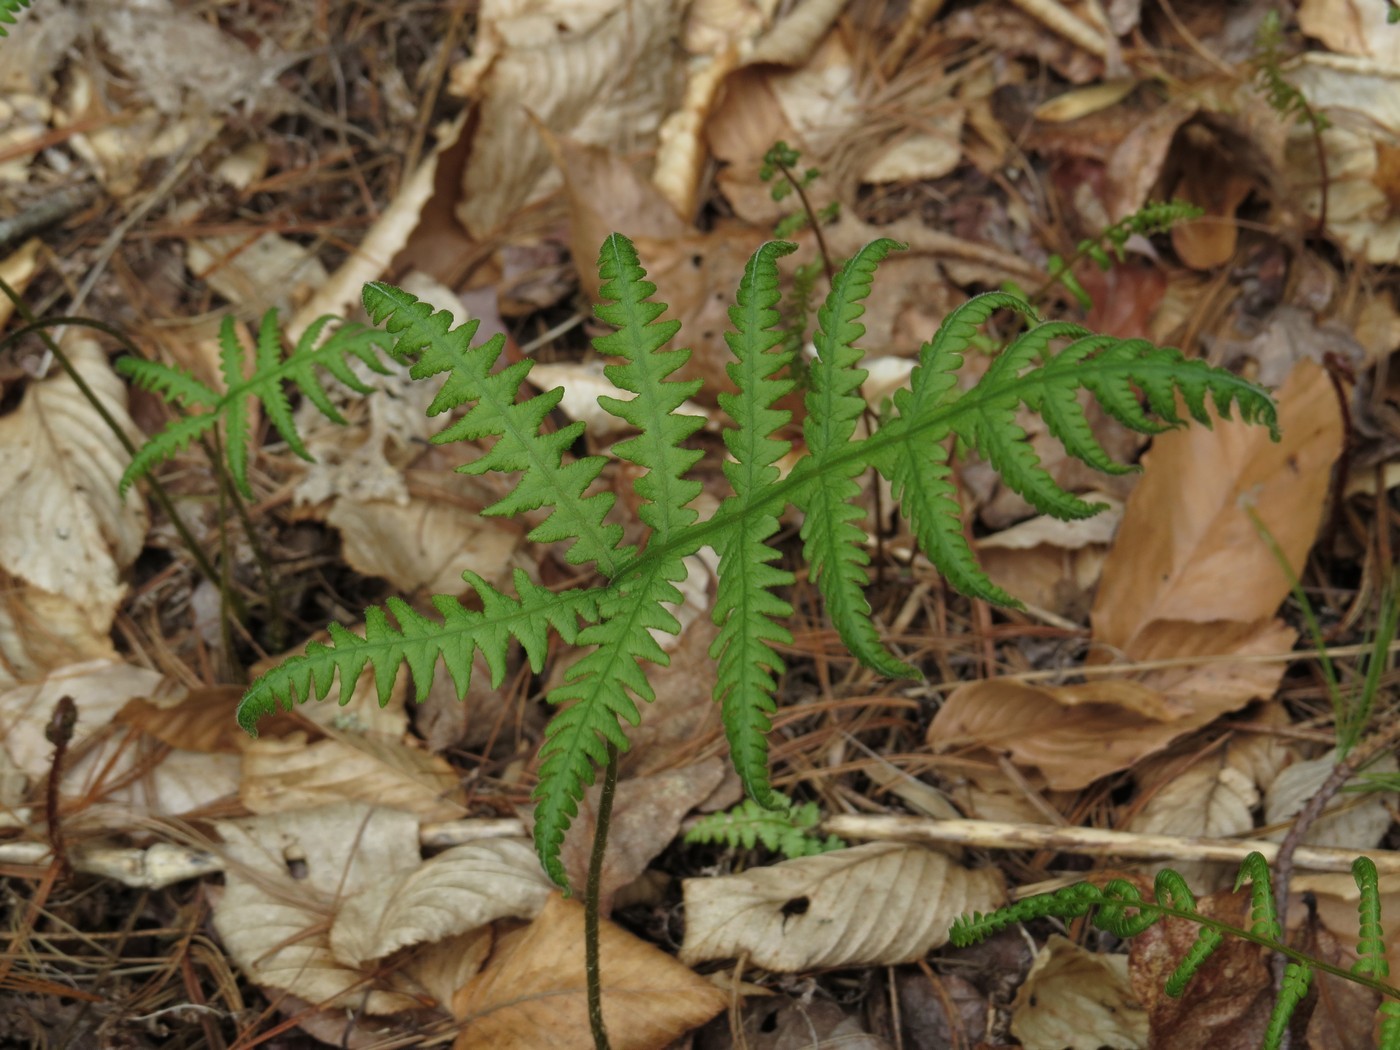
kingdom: Plantae
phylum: Tracheophyta
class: Polypodiopsida
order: Polypodiales
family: Thelypteridaceae
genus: Phegopteris
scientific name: Phegopteris hexagonoptera
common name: Broad beech fern
